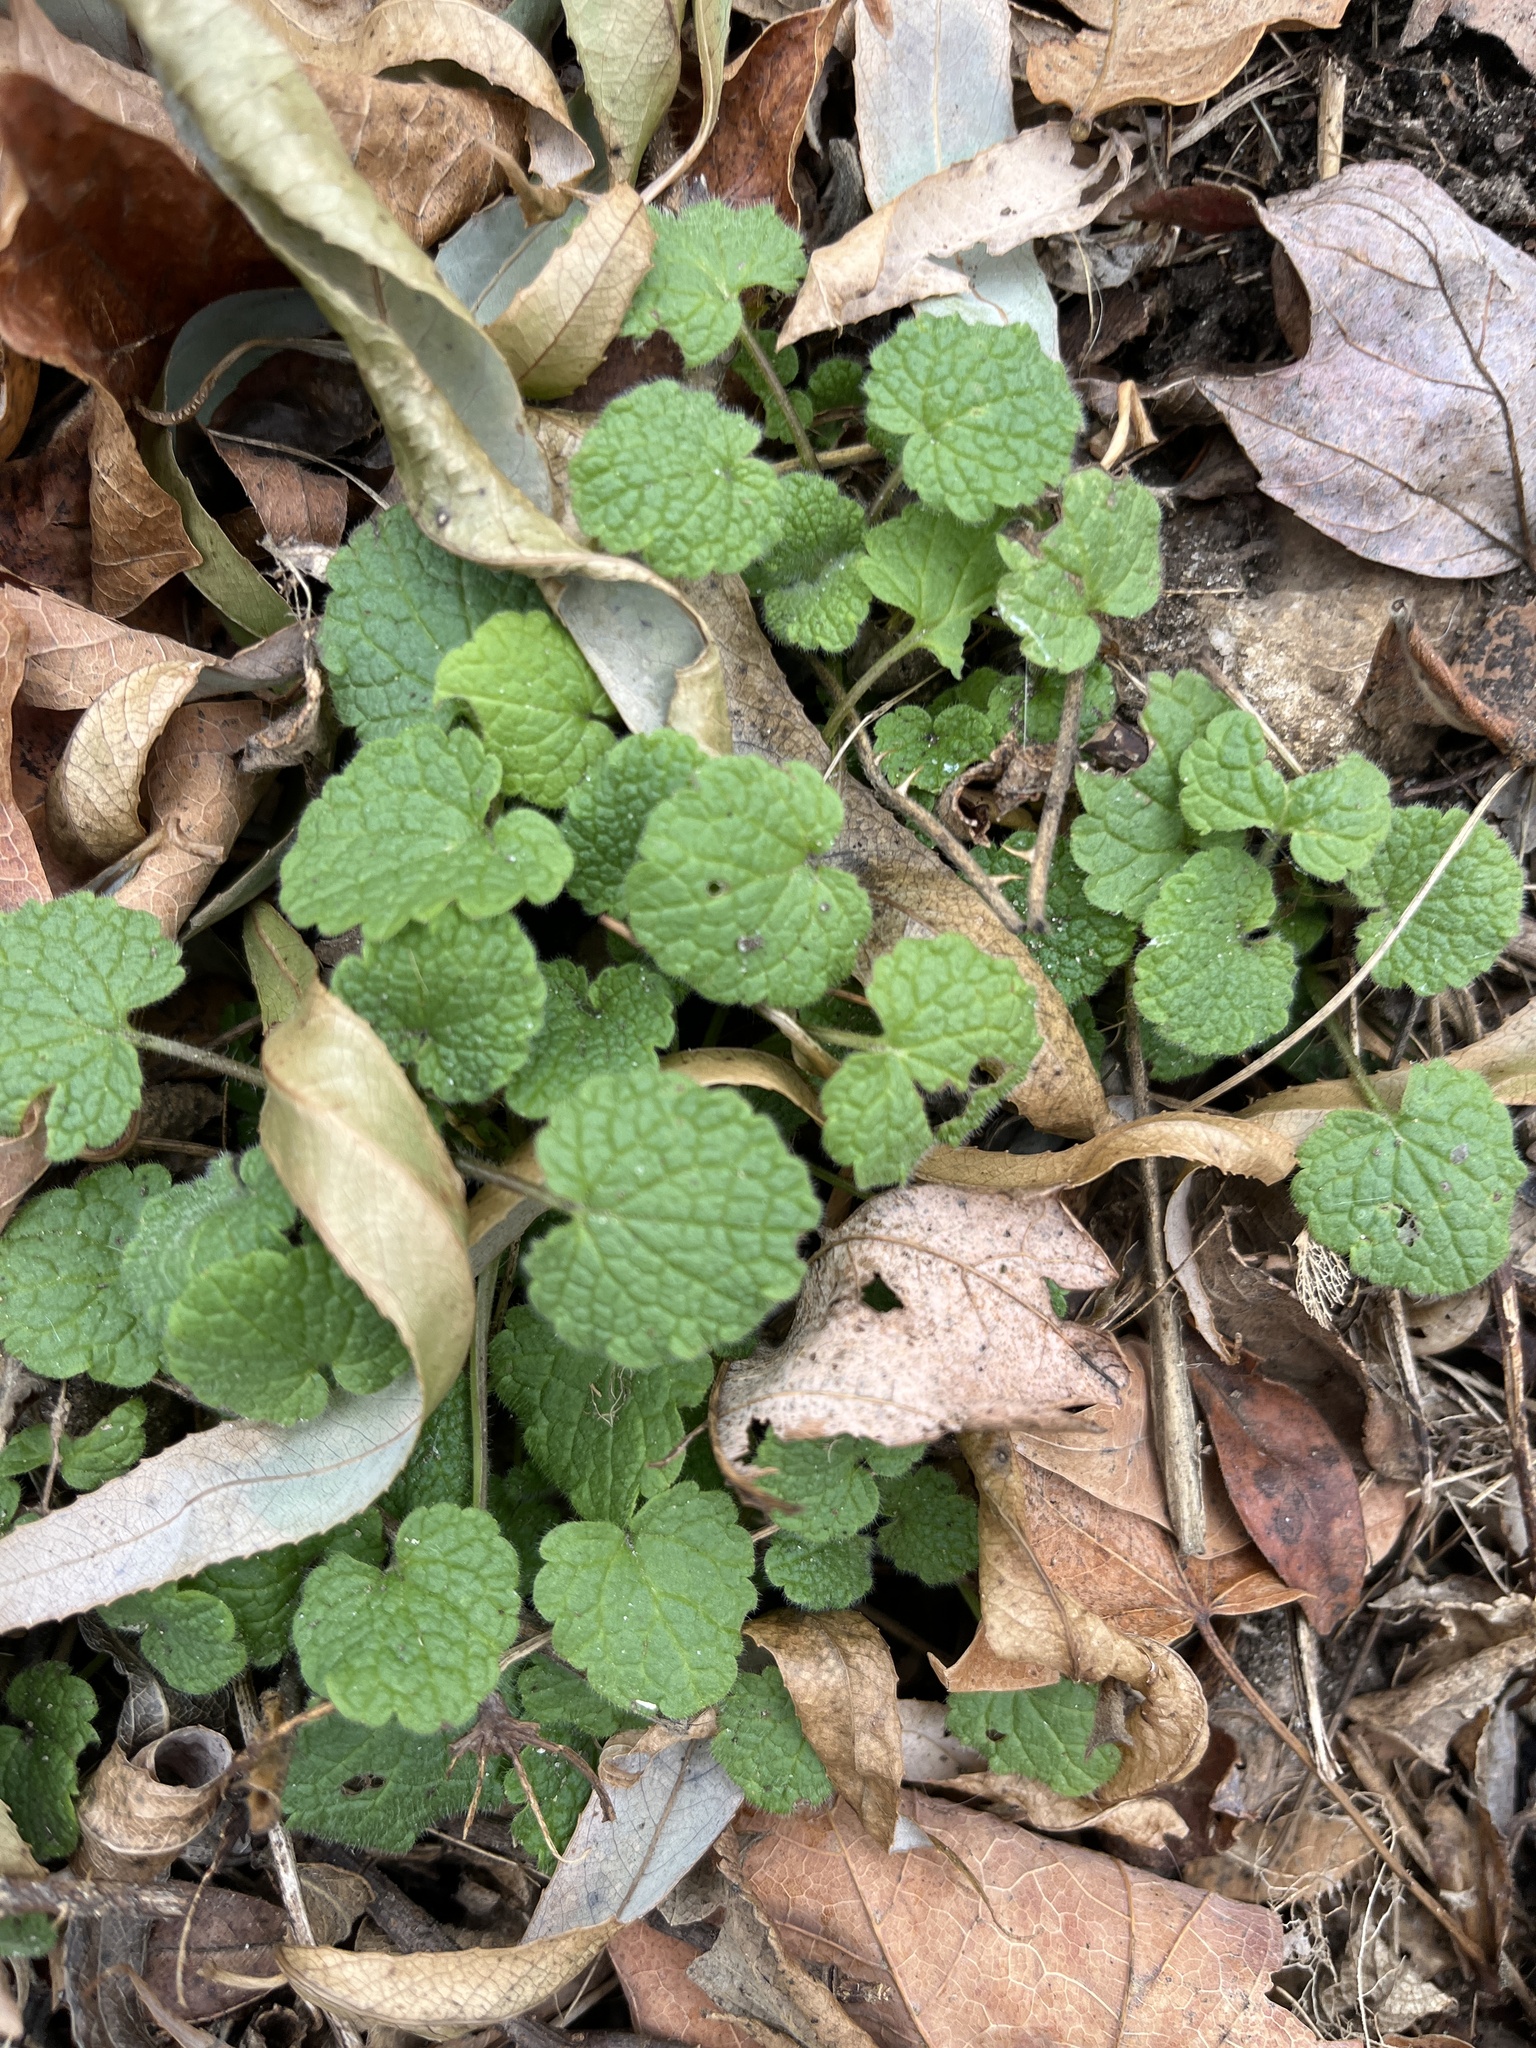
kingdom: Plantae
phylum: Tracheophyta
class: Magnoliopsida
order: Lamiales
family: Lamiaceae
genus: Lamium
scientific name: Lamium purpureum
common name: Red dead-nettle
